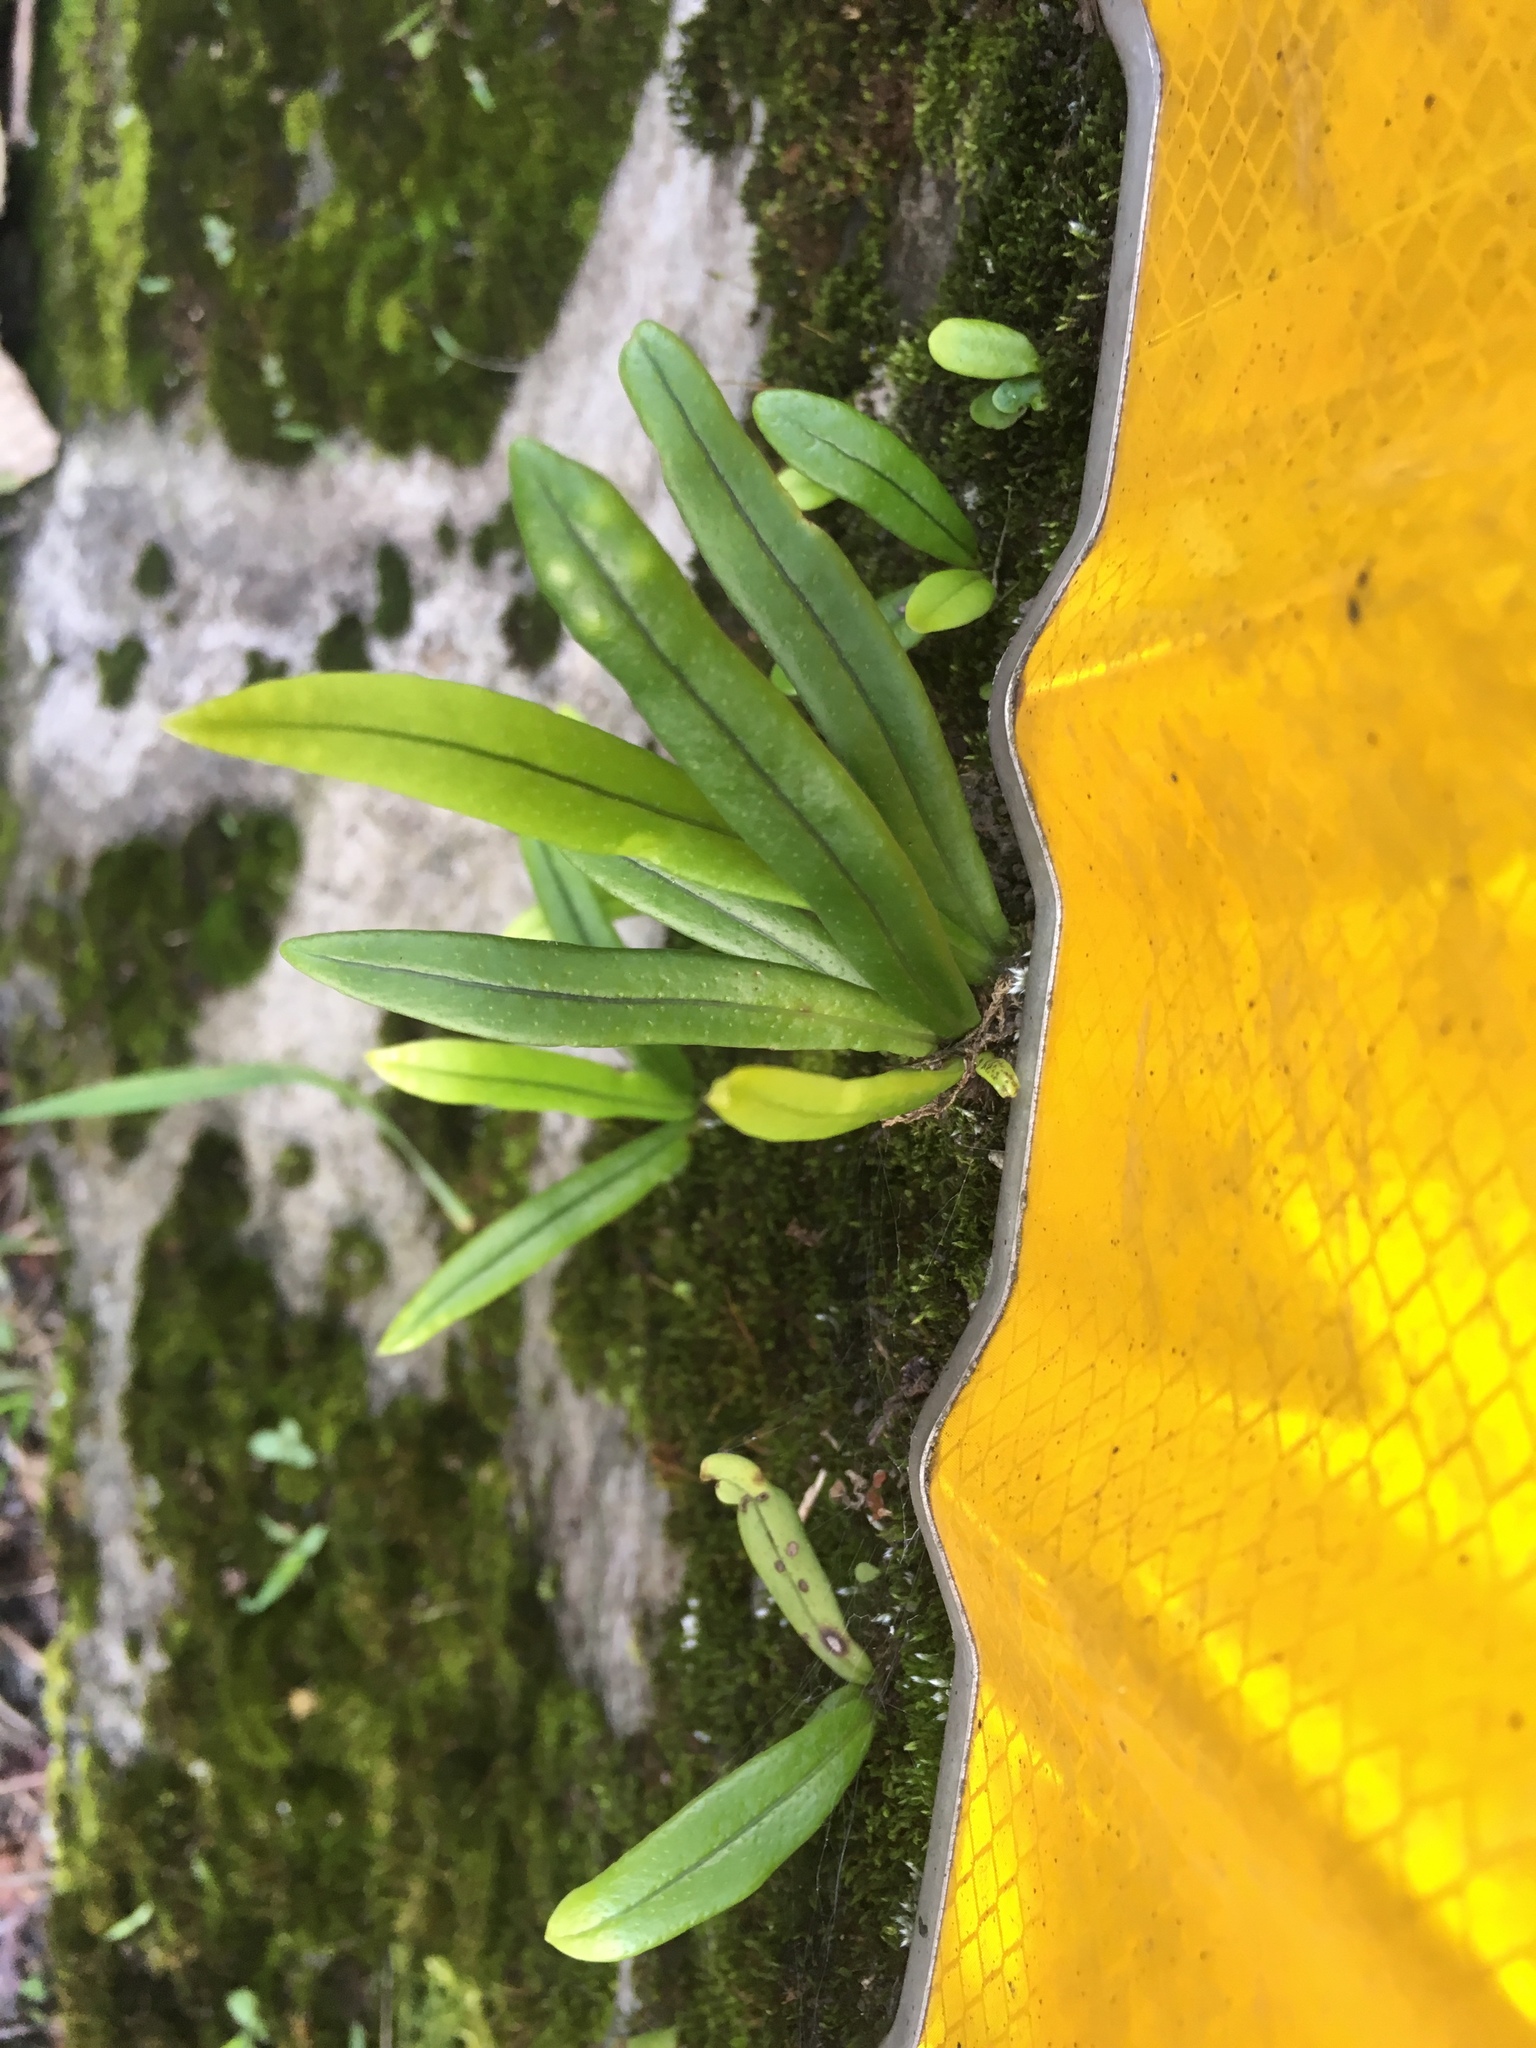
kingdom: Plantae
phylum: Tracheophyta
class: Polypodiopsida
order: Polypodiales
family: Polypodiaceae
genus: Lepisorus
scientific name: Lepisorus thunbergianus
